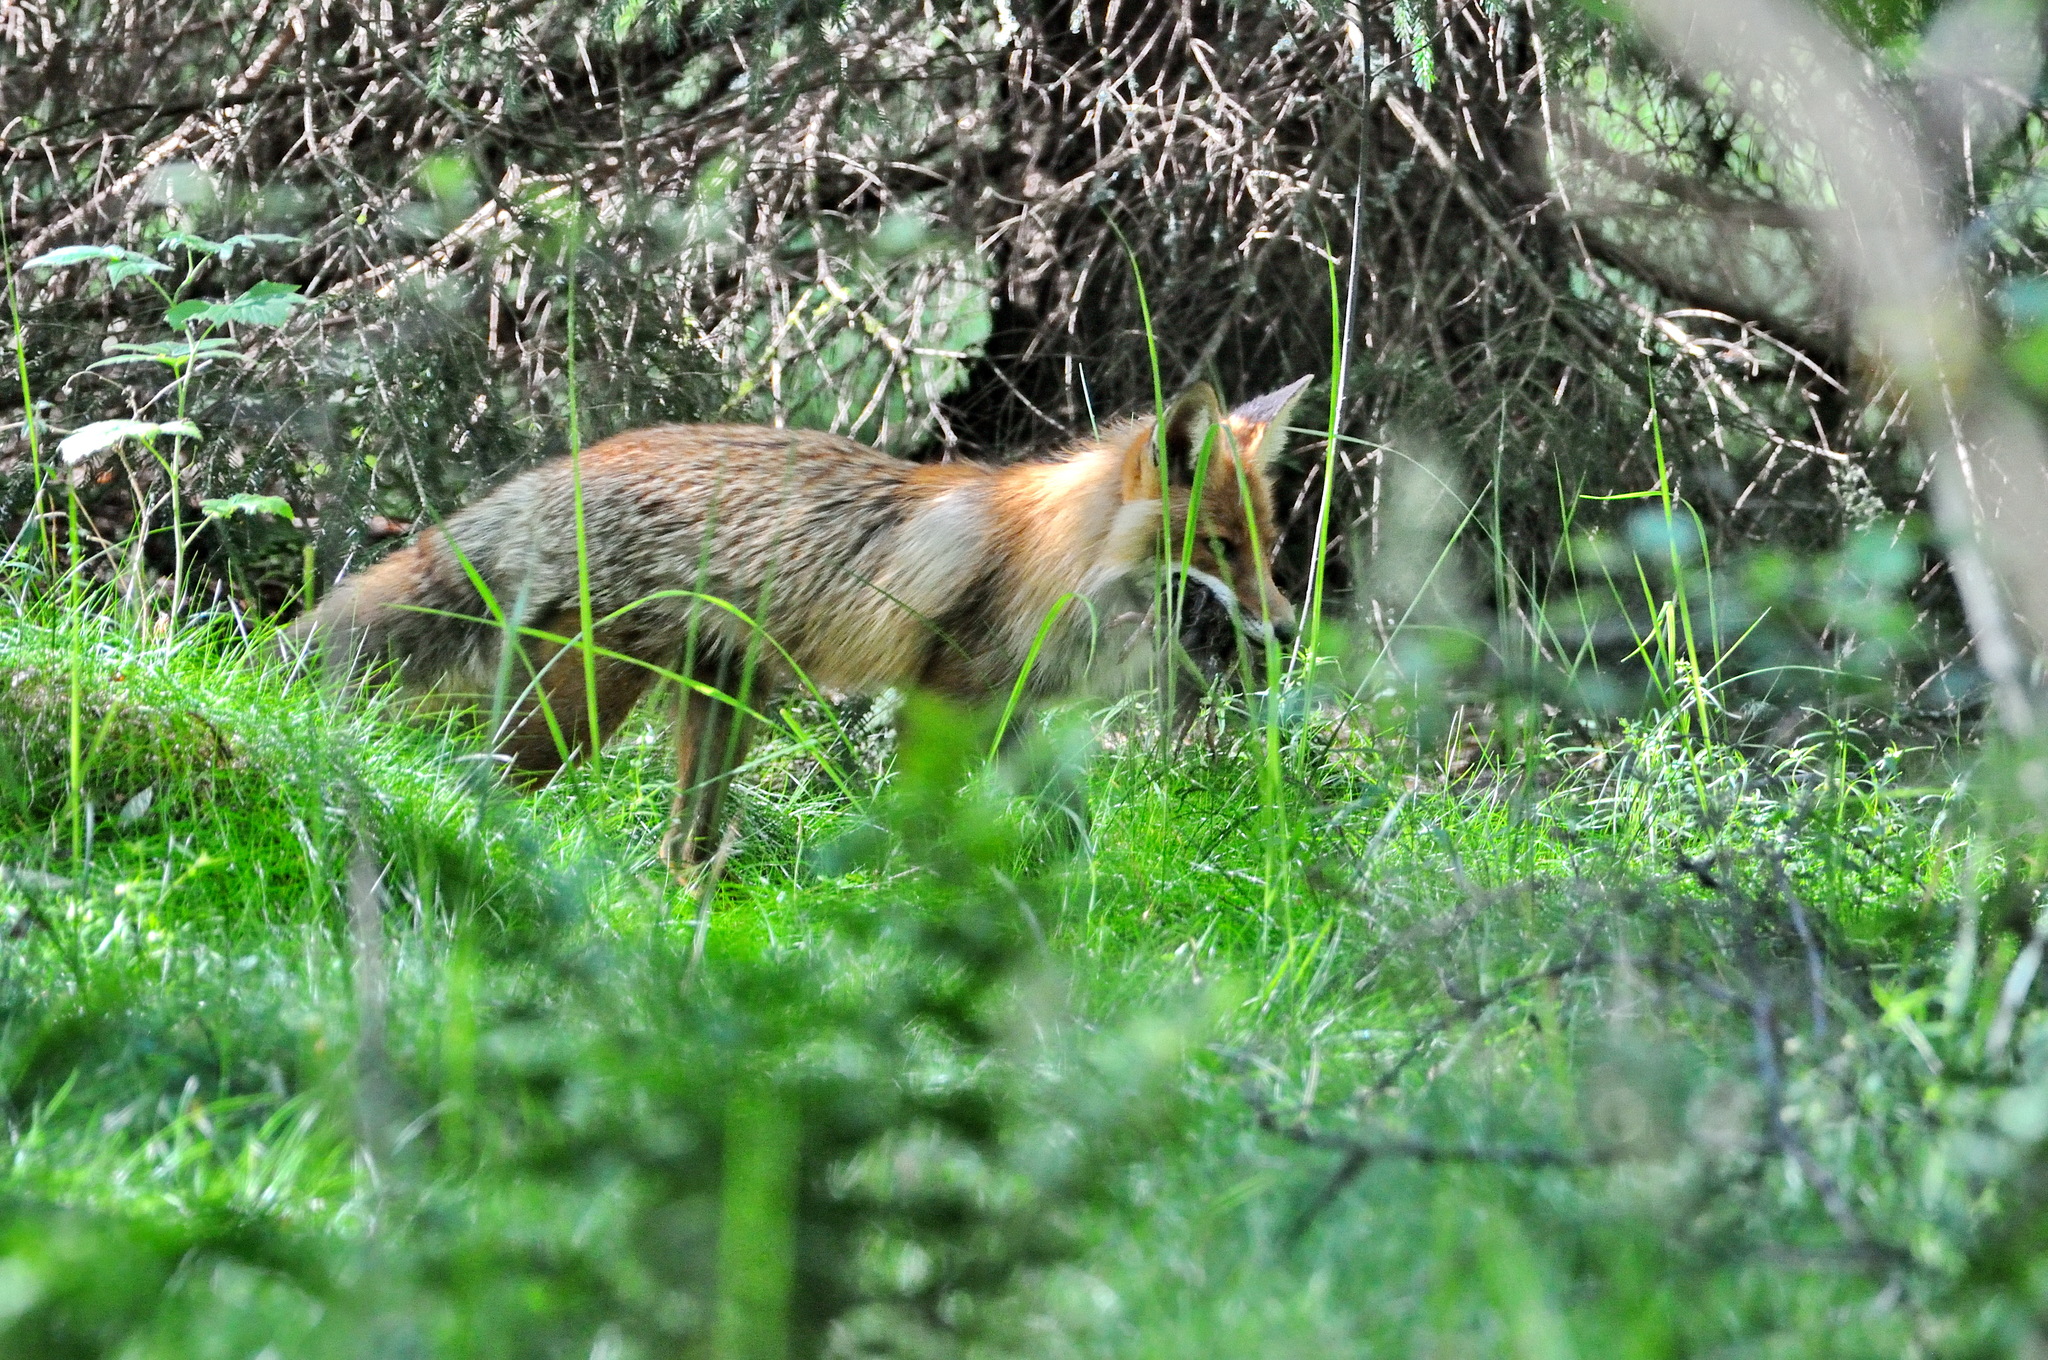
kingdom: Animalia
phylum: Chordata
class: Mammalia
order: Carnivora
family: Canidae
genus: Vulpes
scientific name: Vulpes vulpes
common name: Red fox
